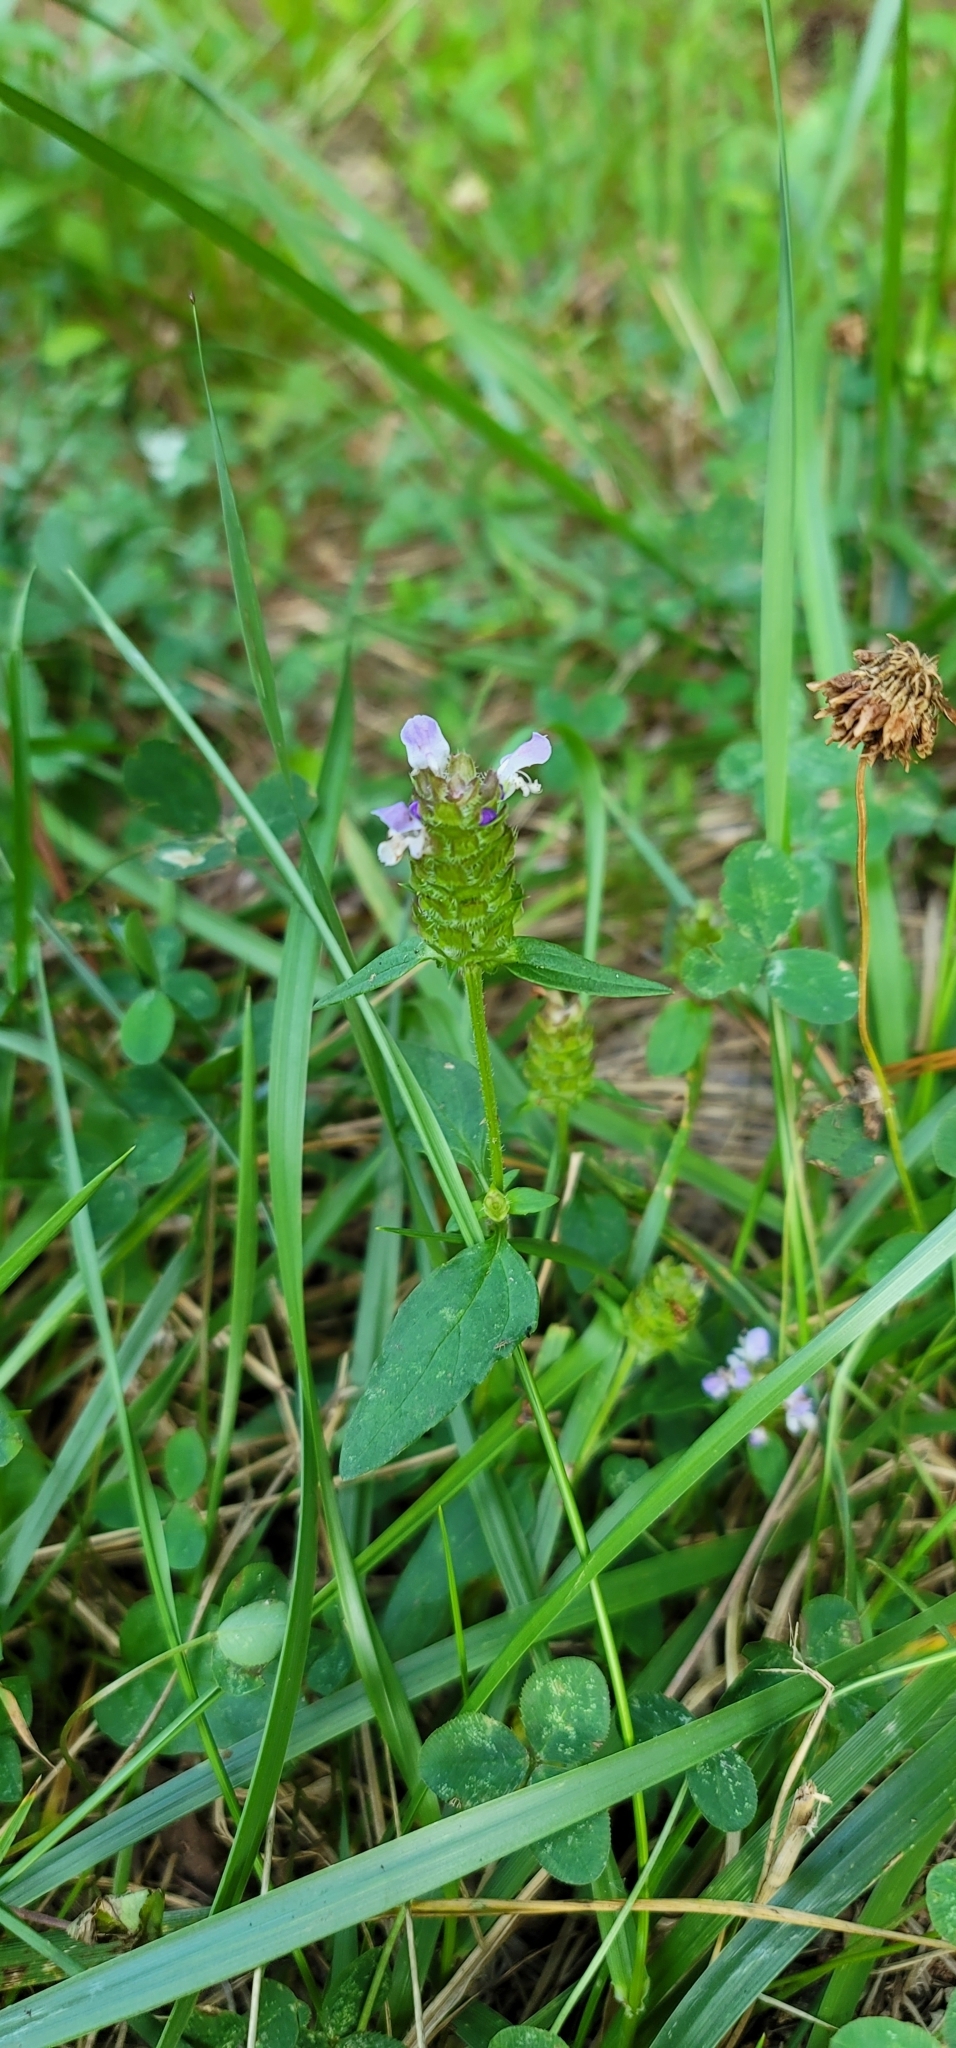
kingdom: Plantae
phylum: Tracheophyta
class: Magnoliopsida
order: Lamiales
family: Lamiaceae
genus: Prunella
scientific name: Prunella vulgaris
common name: Heal-all
